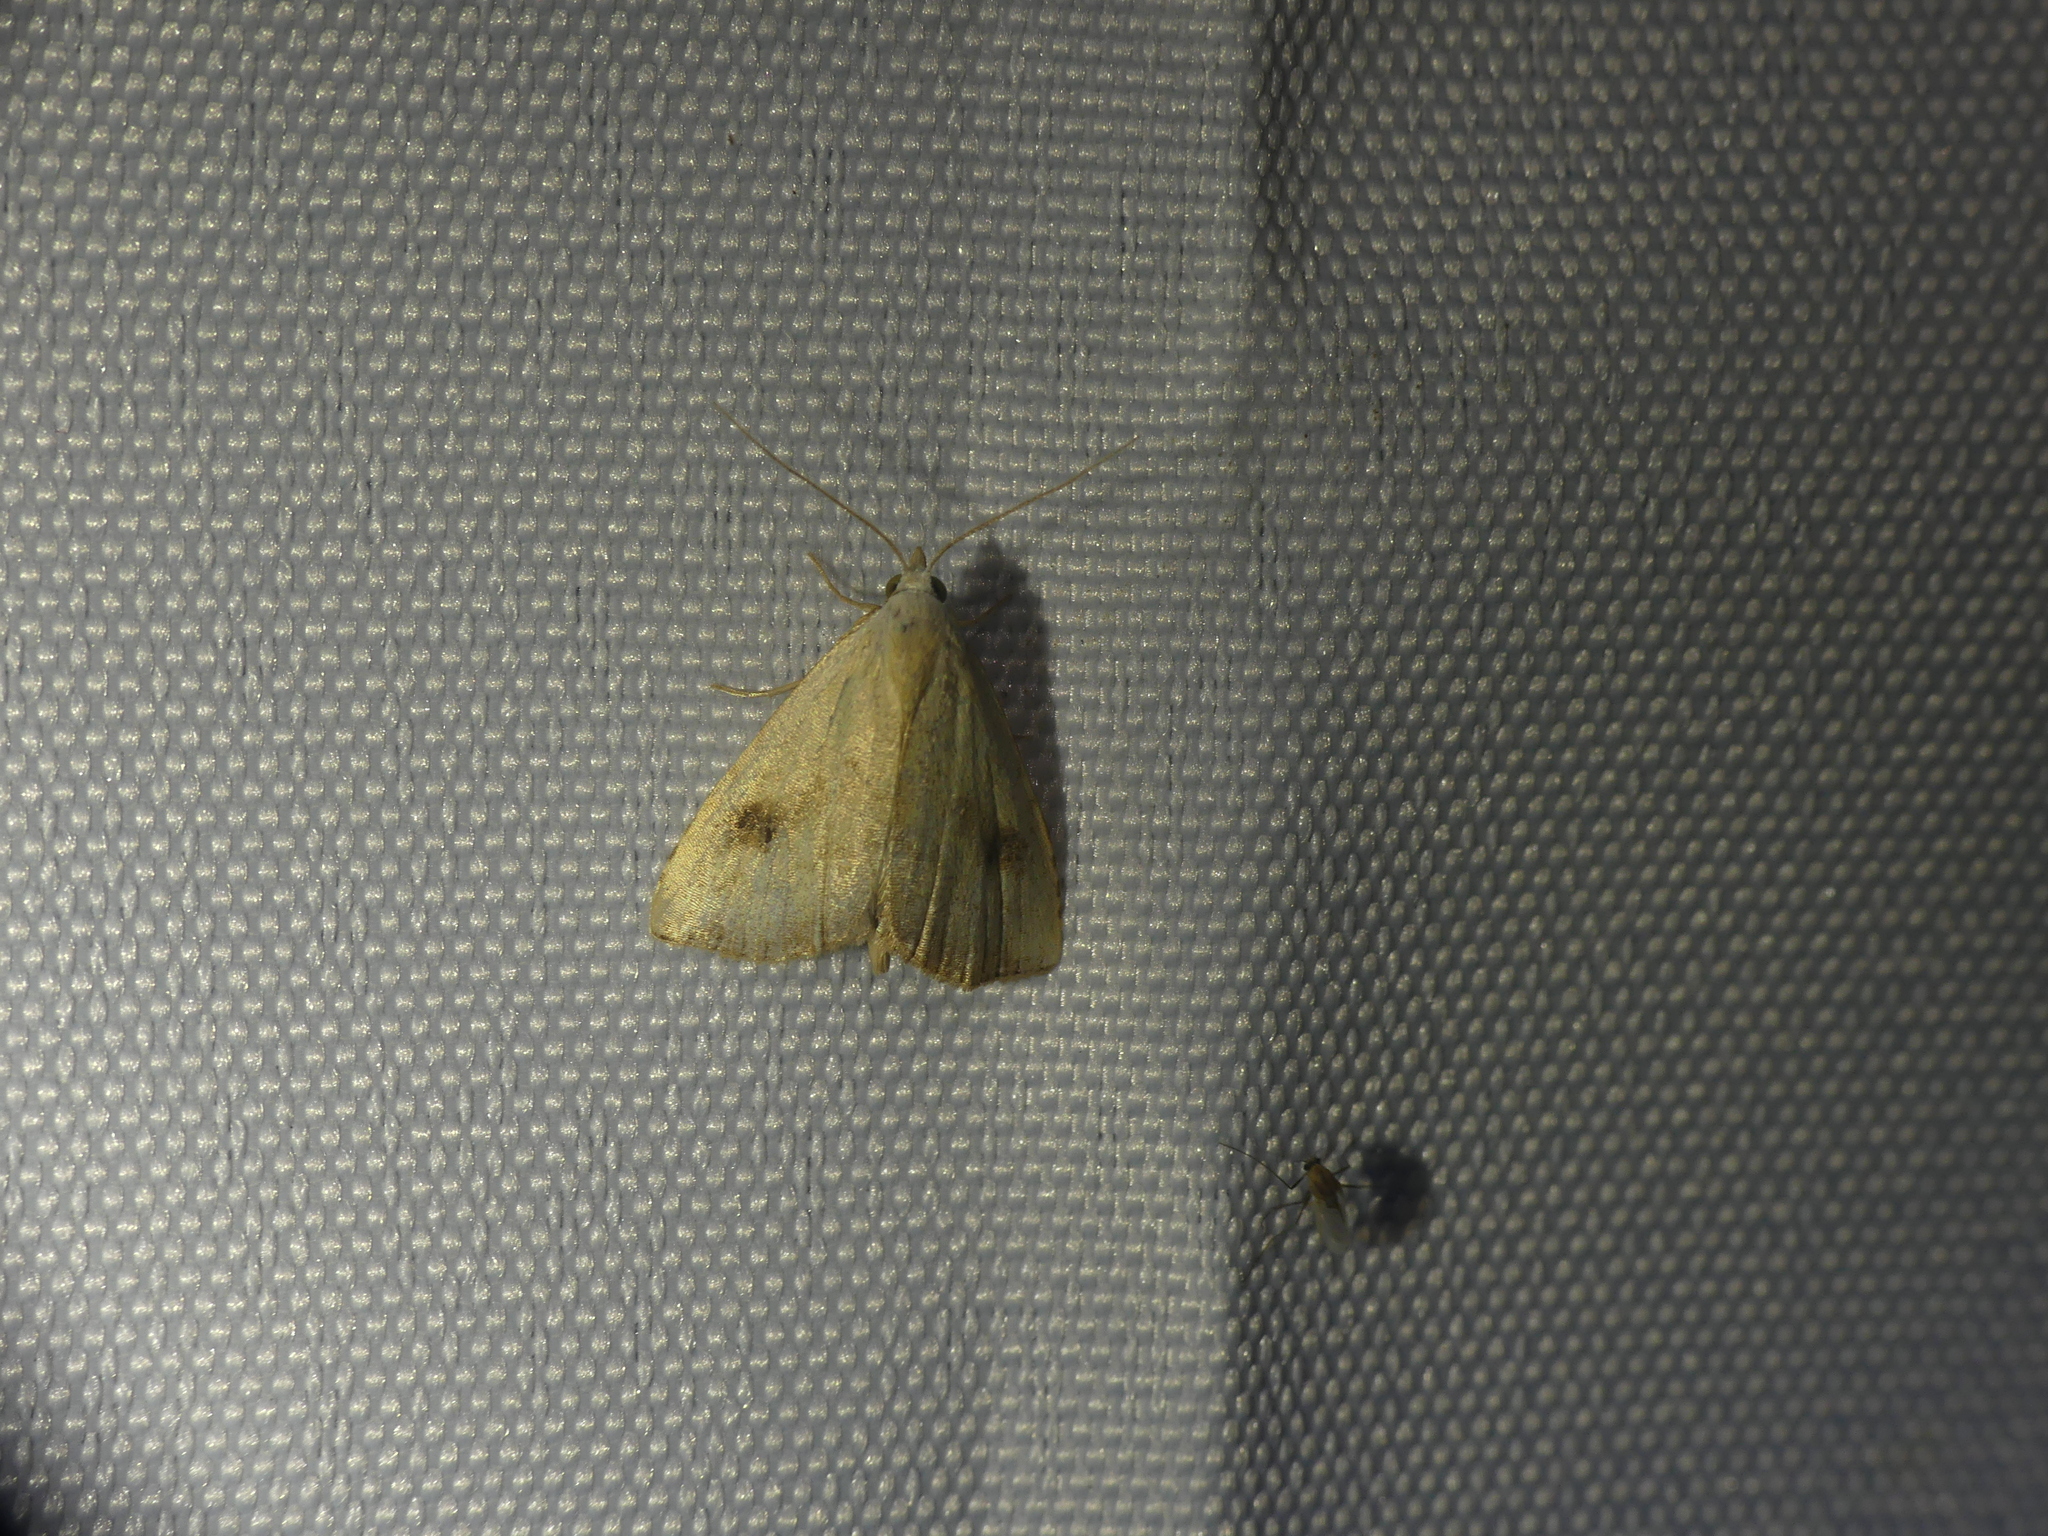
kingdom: Animalia
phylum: Arthropoda
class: Insecta
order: Lepidoptera
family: Erebidae
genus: Rivula
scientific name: Rivula sericealis
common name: Straw dot
